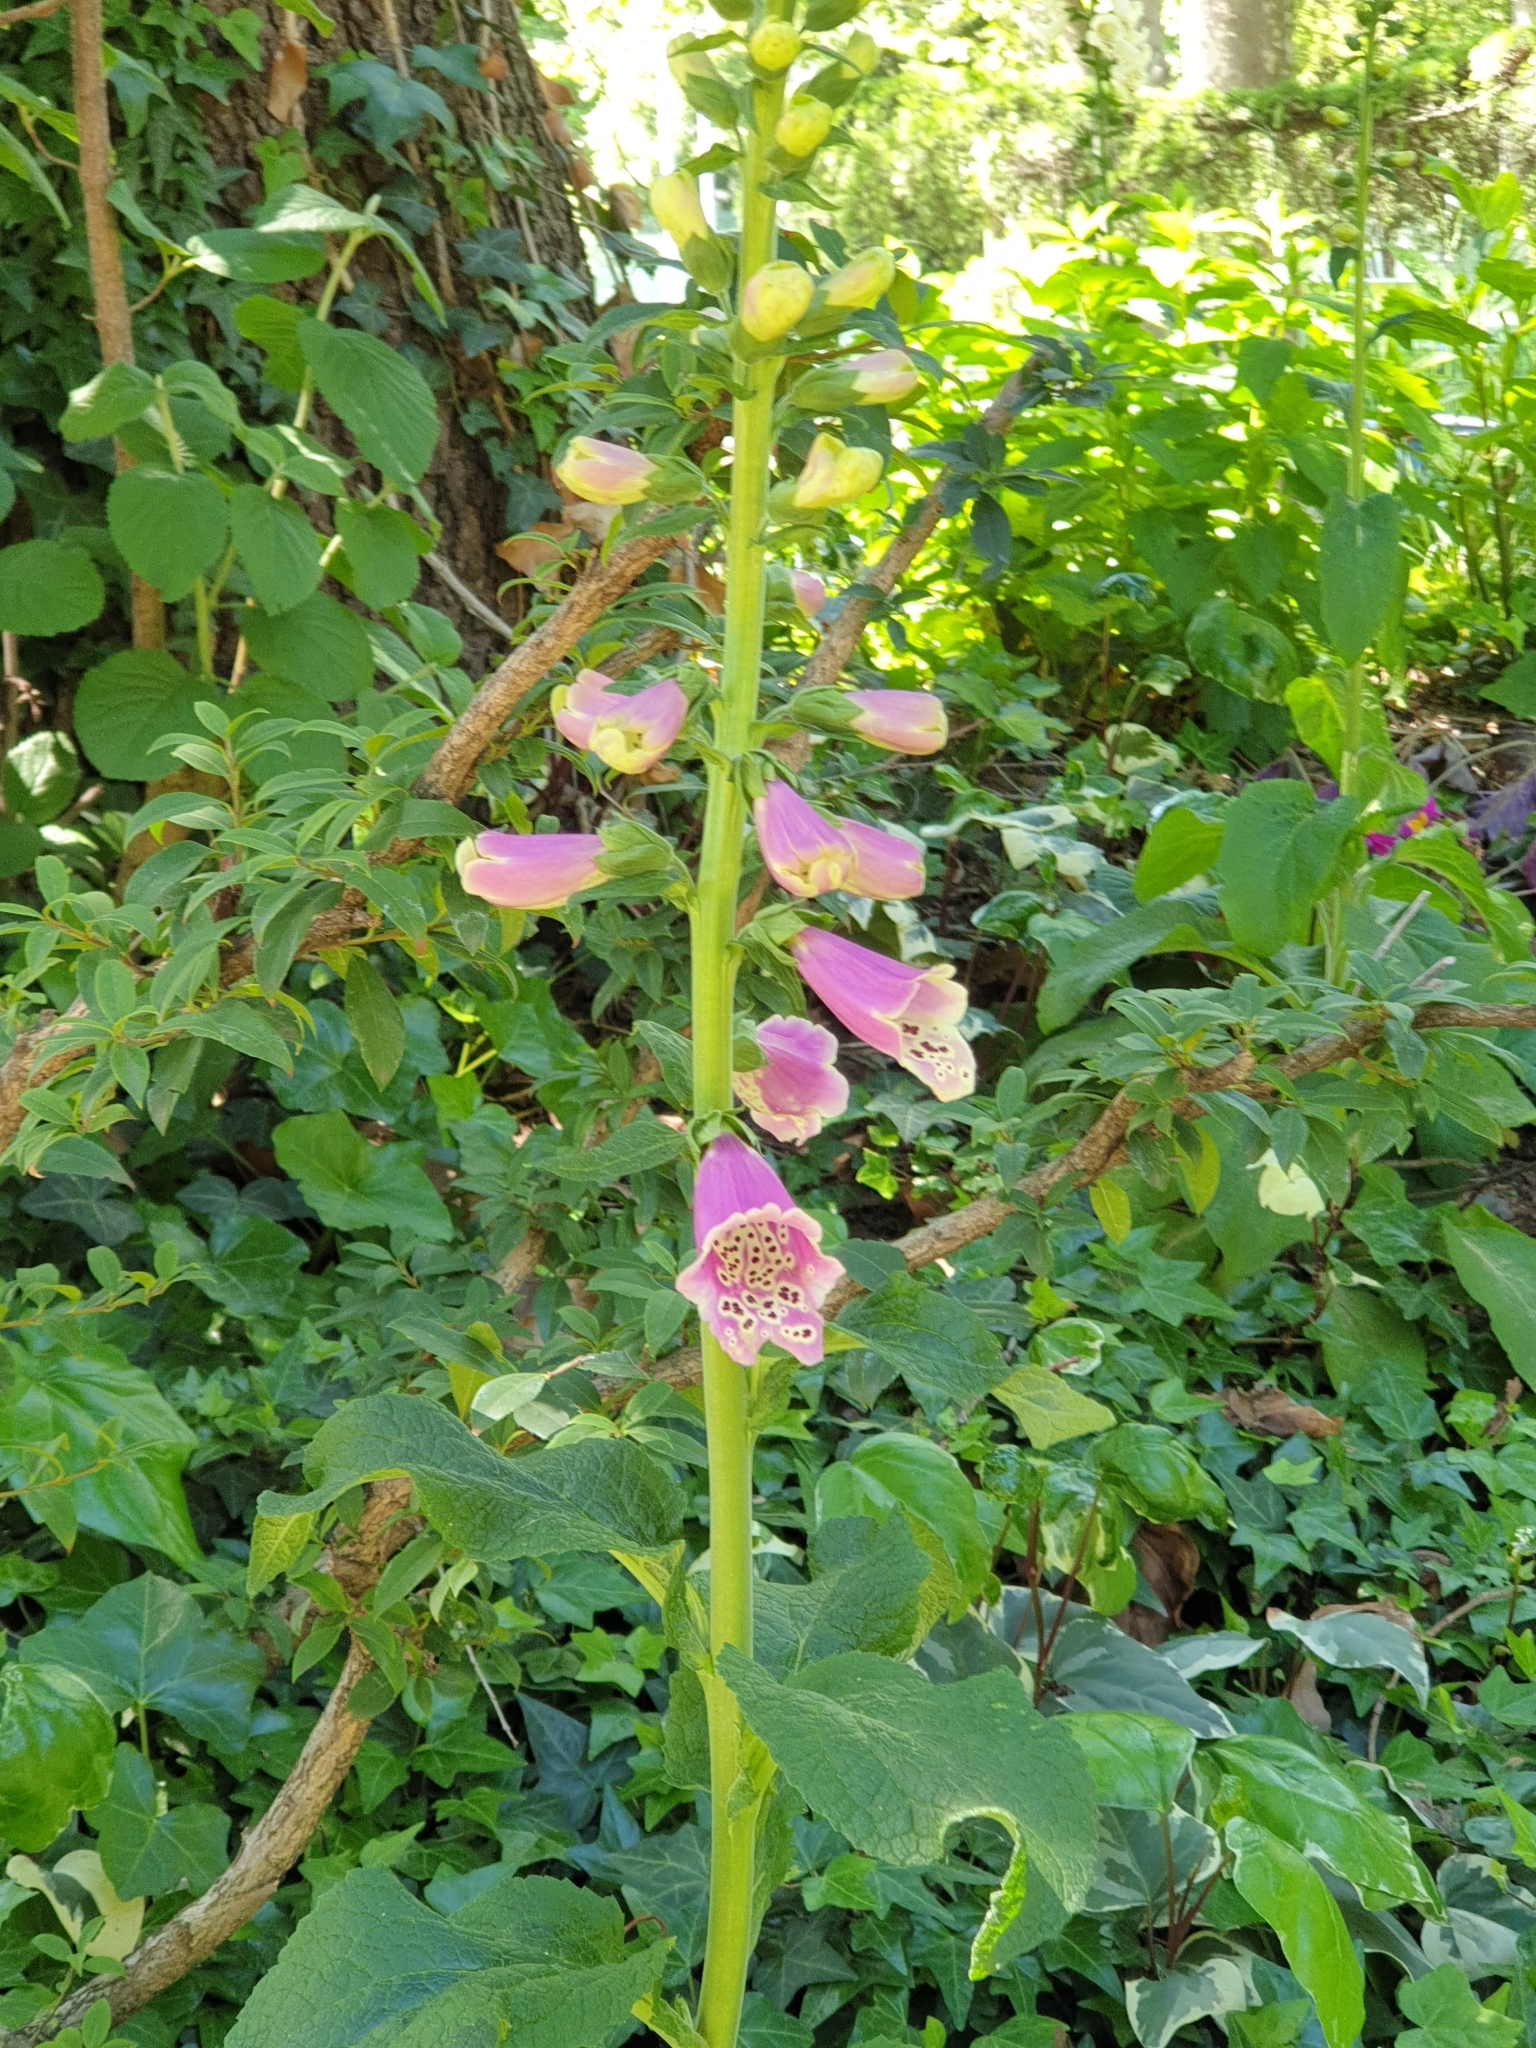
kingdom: Plantae
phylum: Tracheophyta
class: Magnoliopsida
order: Lamiales
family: Plantaginaceae
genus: Digitalis
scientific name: Digitalis purpurea
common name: Foxglove
